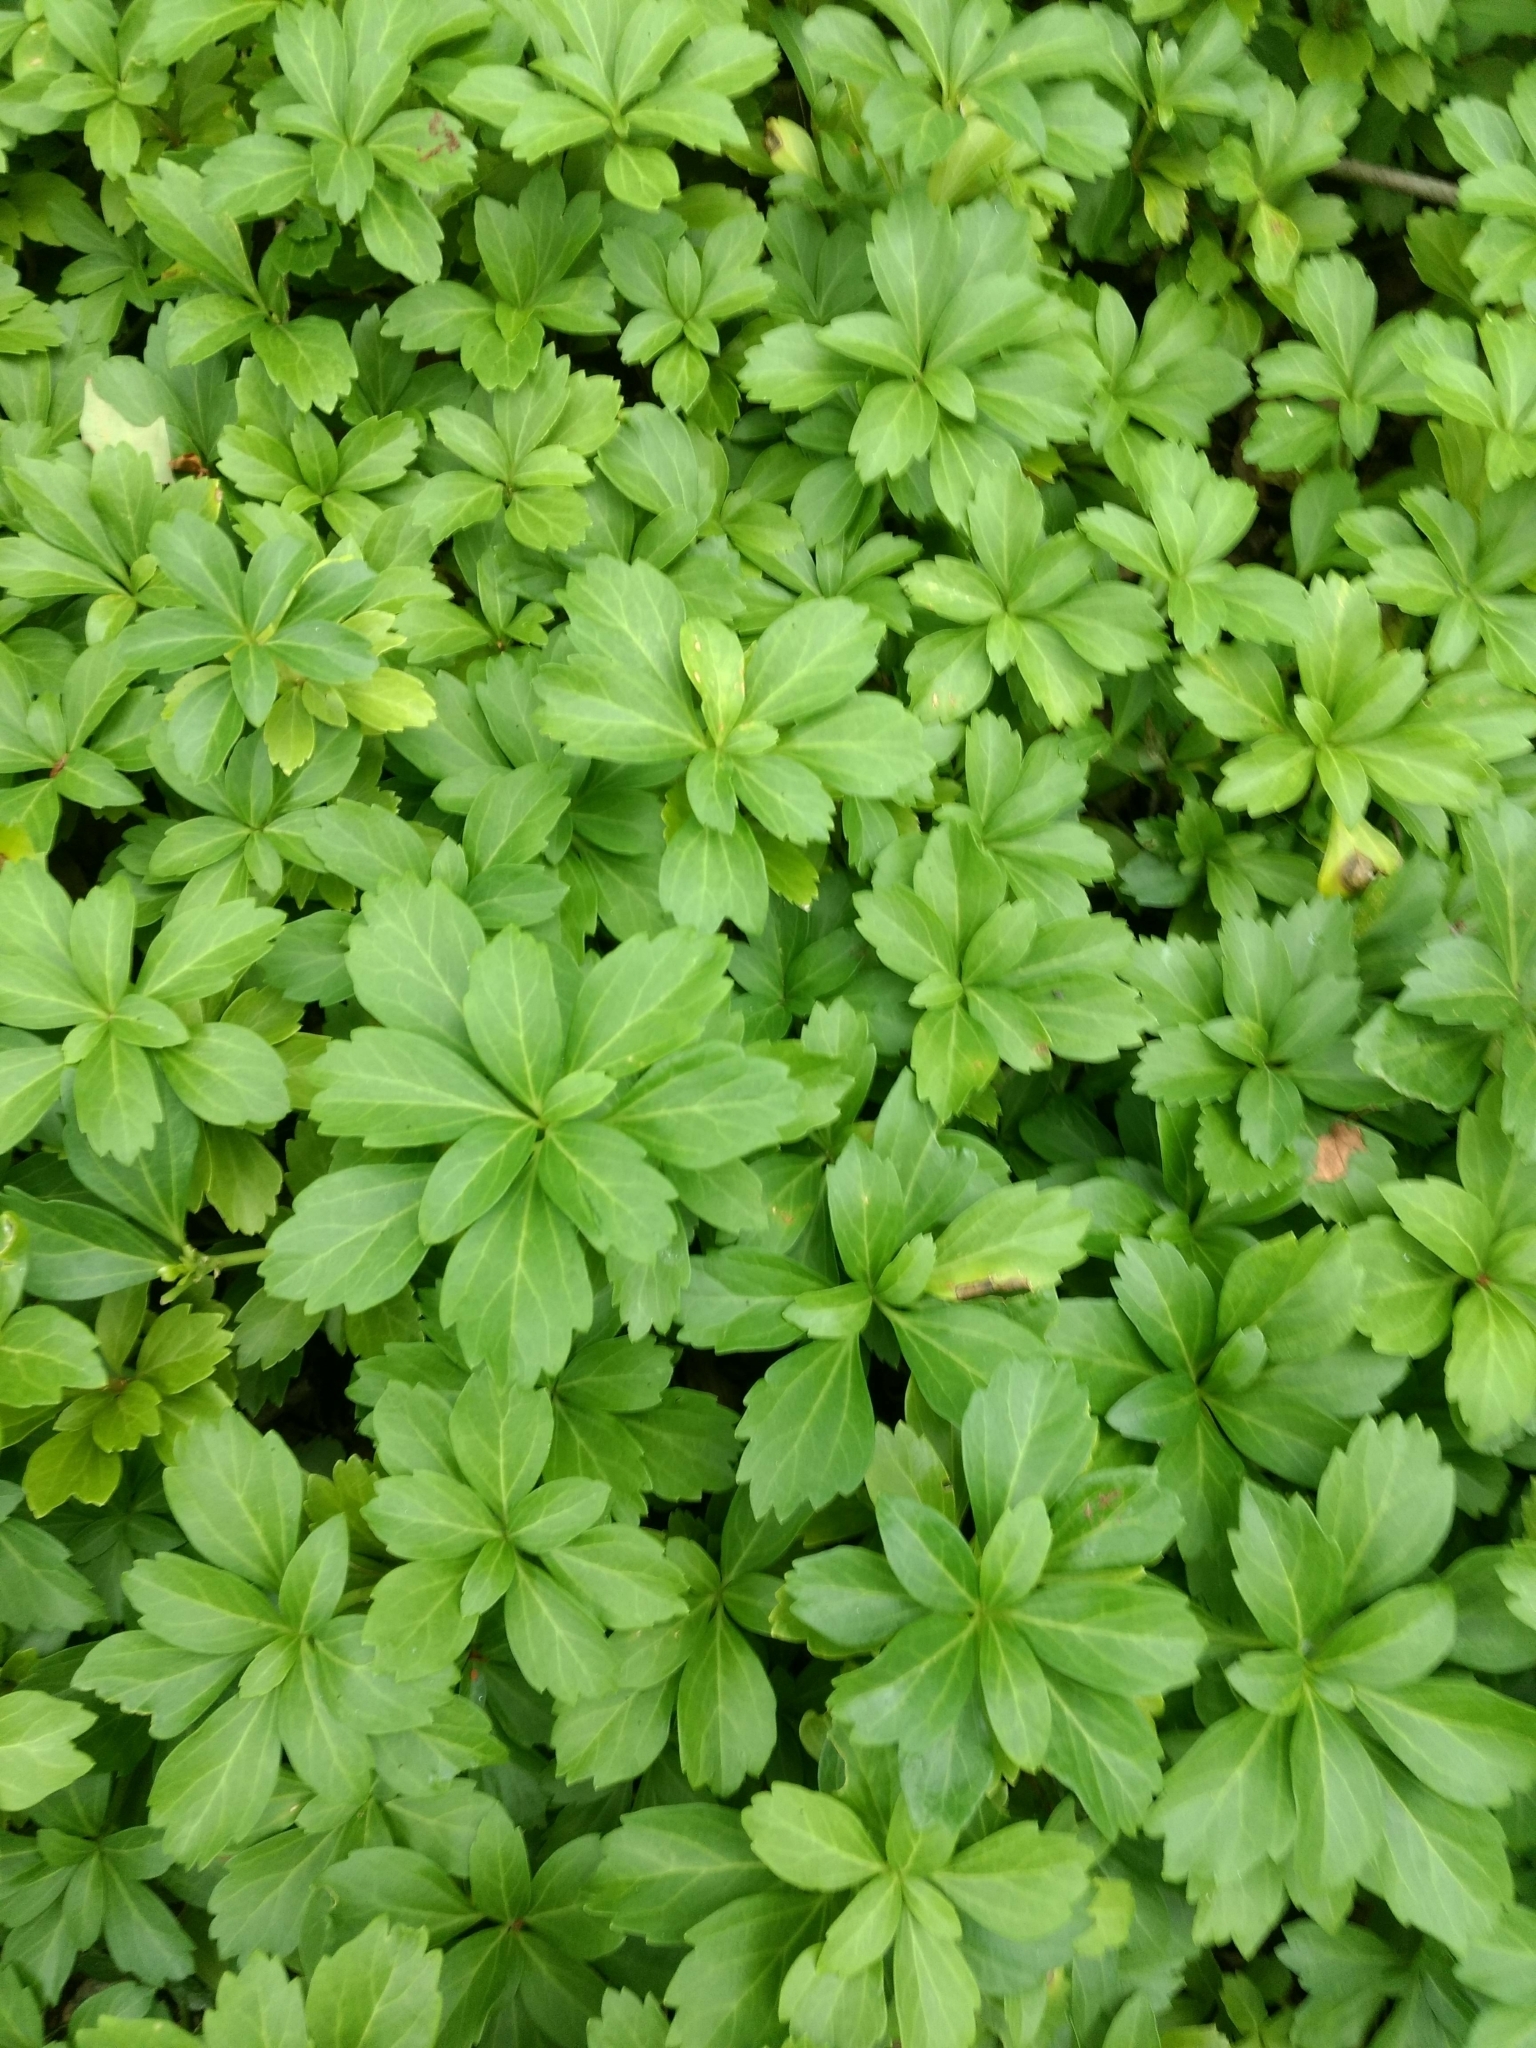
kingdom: Plantae
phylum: Tracheophyta
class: Magnoliopsida
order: Buxales
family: Buxaceae
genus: Pachysandra
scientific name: Pachysandra terminalis
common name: Japanese pachysandra
